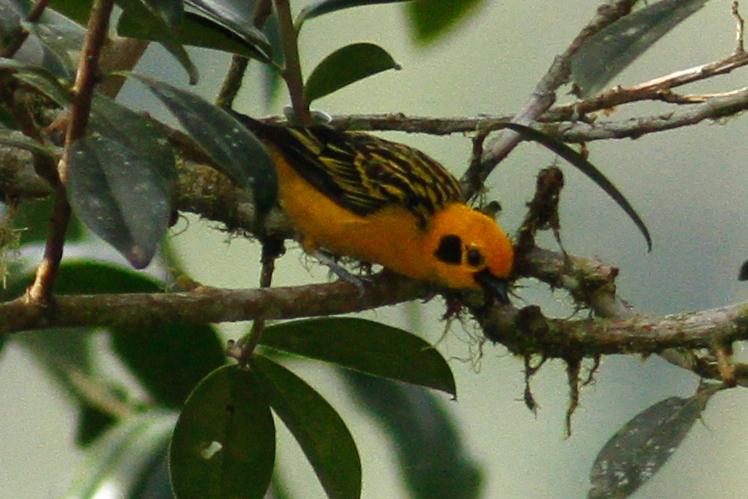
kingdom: Animalia
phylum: Chordata
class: Aves
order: Passeriformes
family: Thraupidae
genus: Tangara
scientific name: Tangara arthus
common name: Golden tanager
